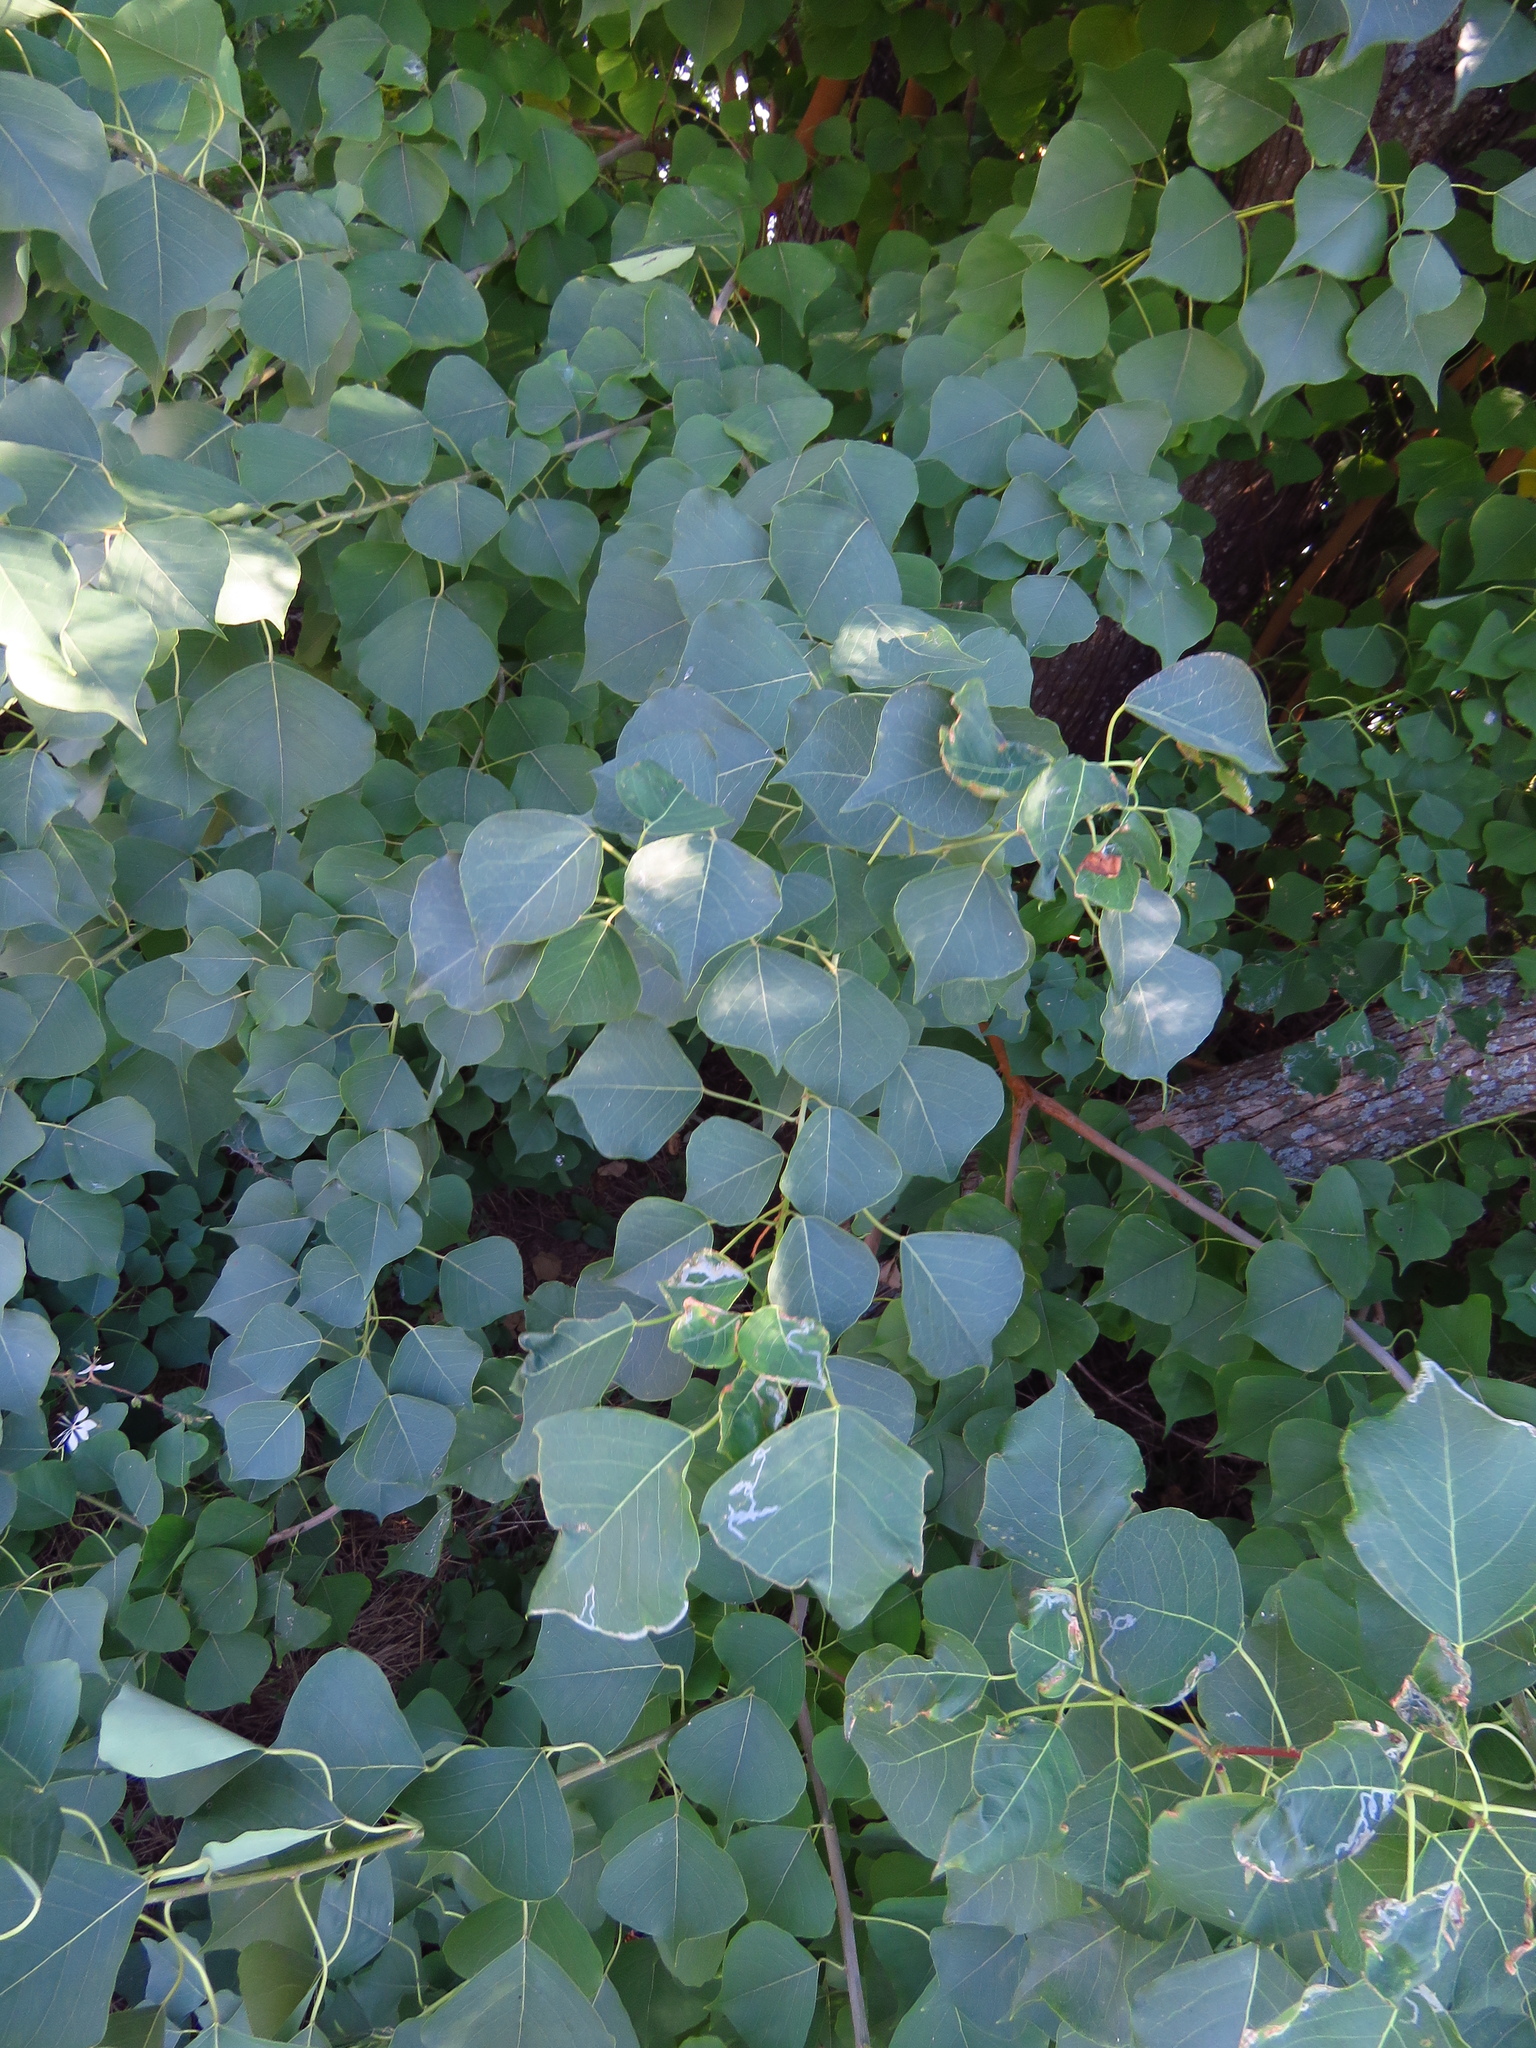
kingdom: Plantae
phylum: Tracheophyta
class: Magnoliopsida
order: Malpighiales
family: Euphorbiaceae
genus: Triadica
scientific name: Triadica sebifera
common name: Chinese tallow
